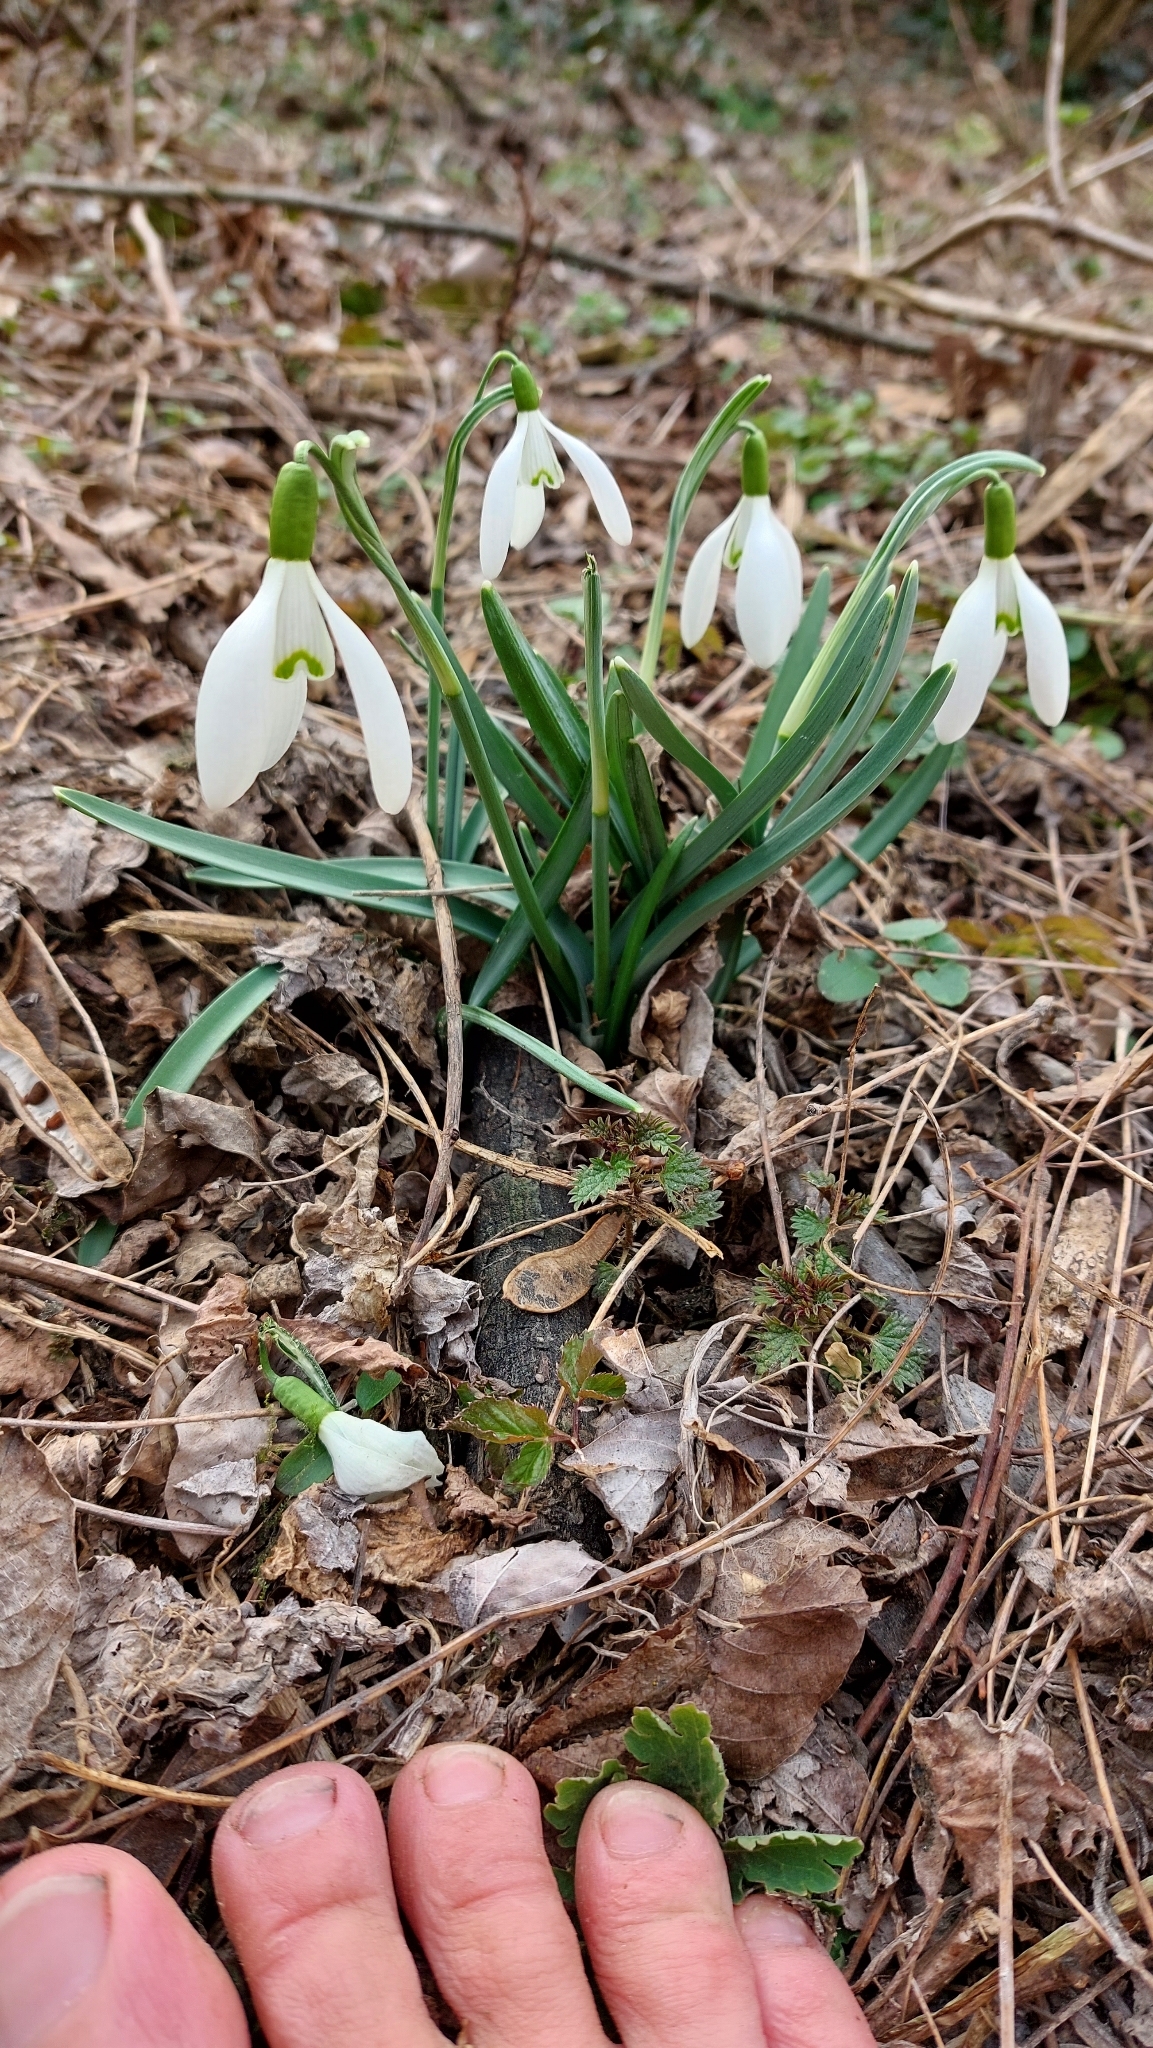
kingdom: Plantae
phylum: Tracheophyta
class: Liliopsida
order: Asparagales
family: Amaryllidaceae
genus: Galanthus
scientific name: Galanthus nivalis
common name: Snowdrop
